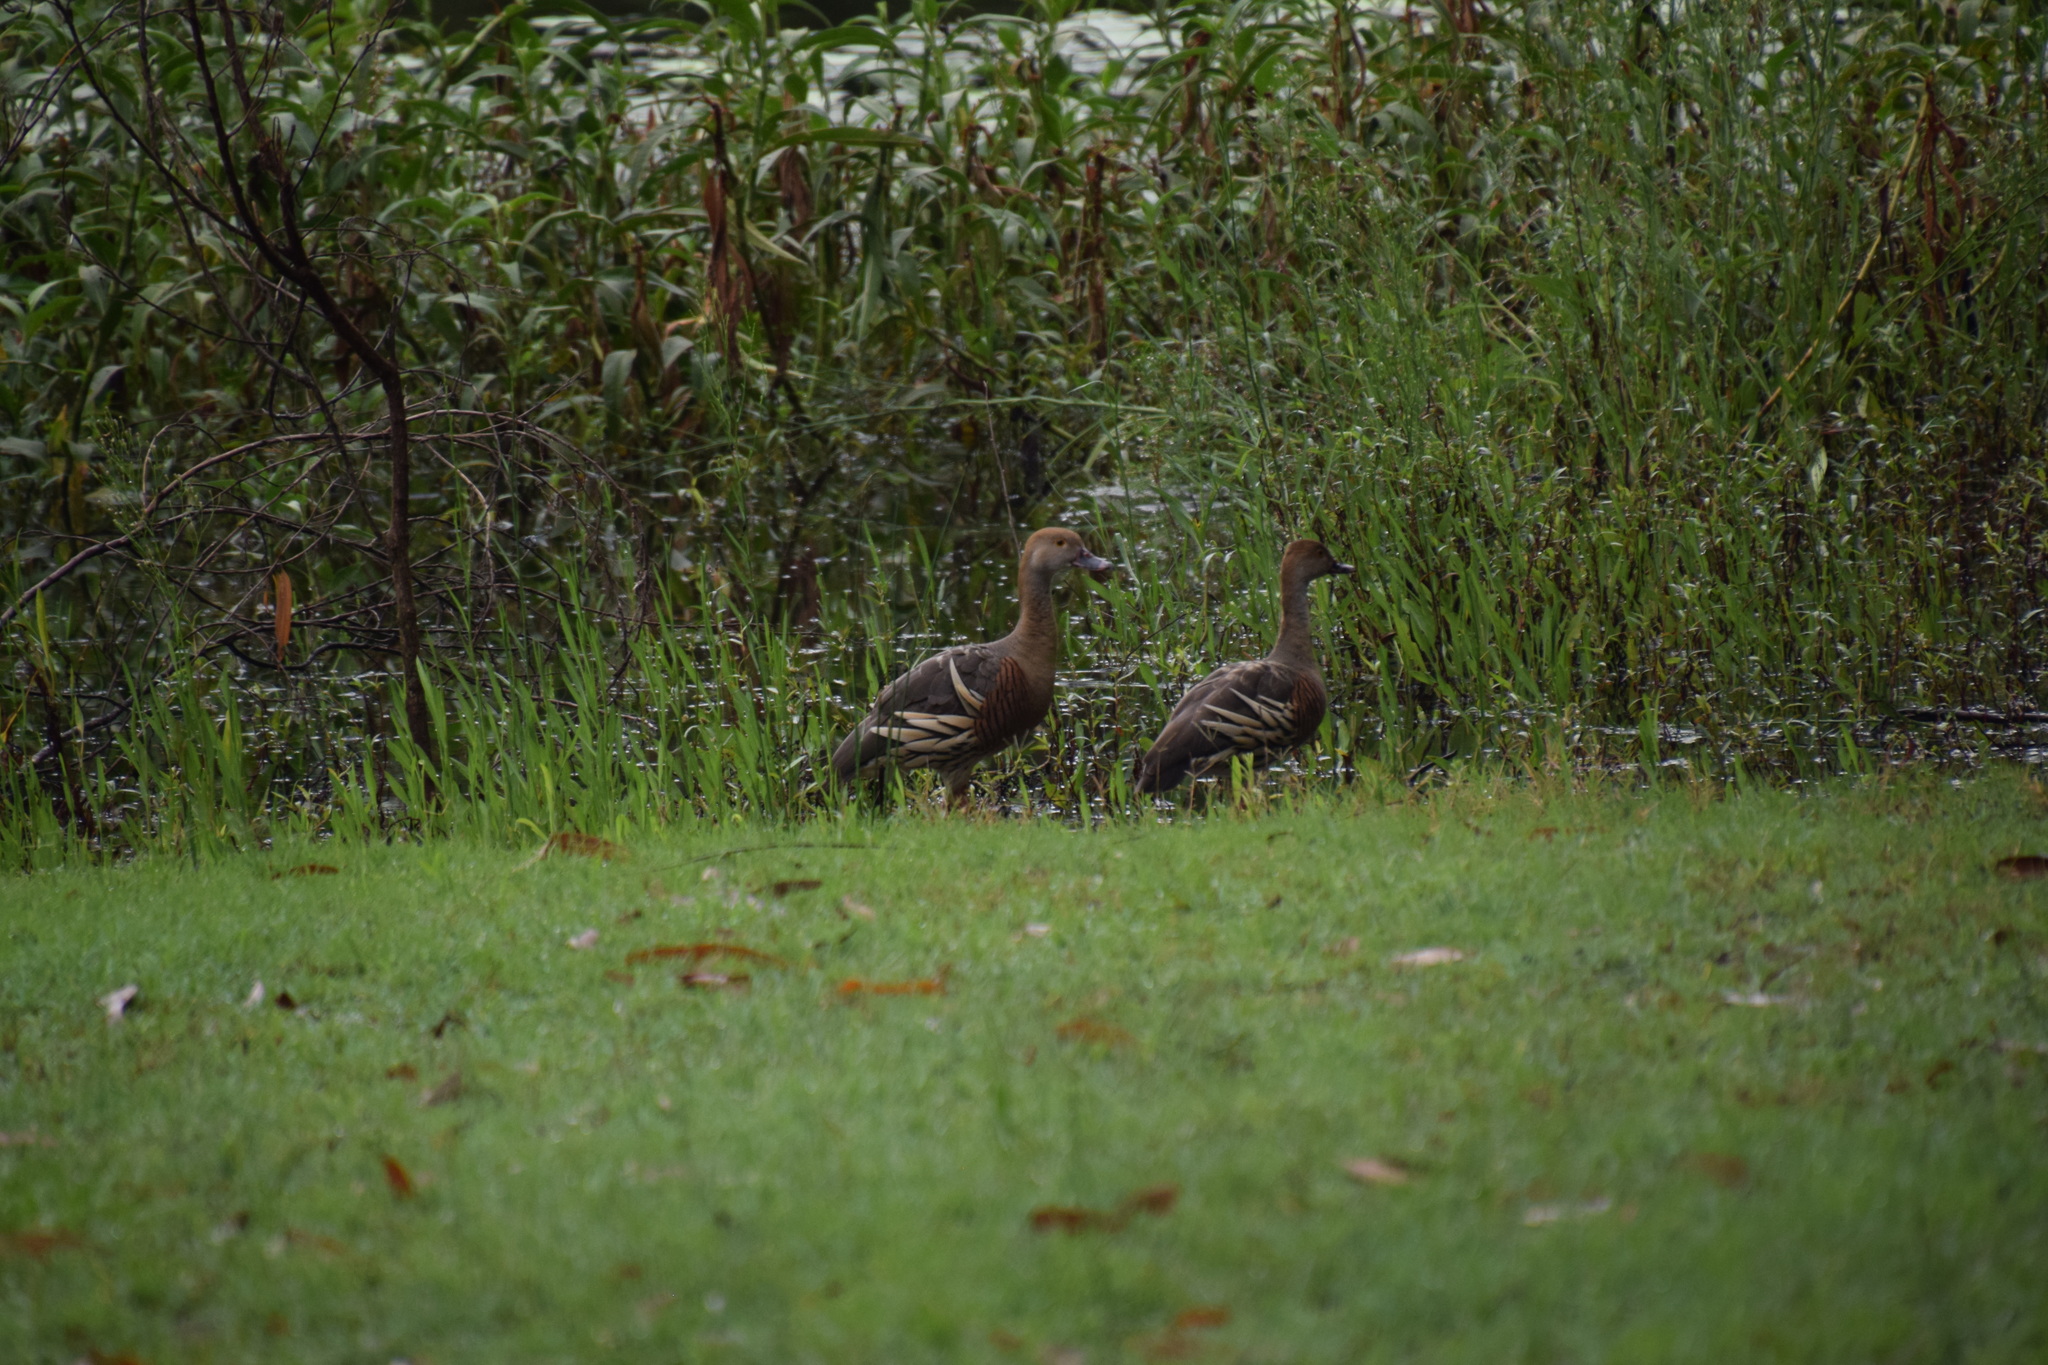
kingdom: Animalia
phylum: Chordata
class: Aves
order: Anseriformes
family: Anatidae
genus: Dendrocygna
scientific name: Dendrocygna eytoni
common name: Plumed whistling-duck
